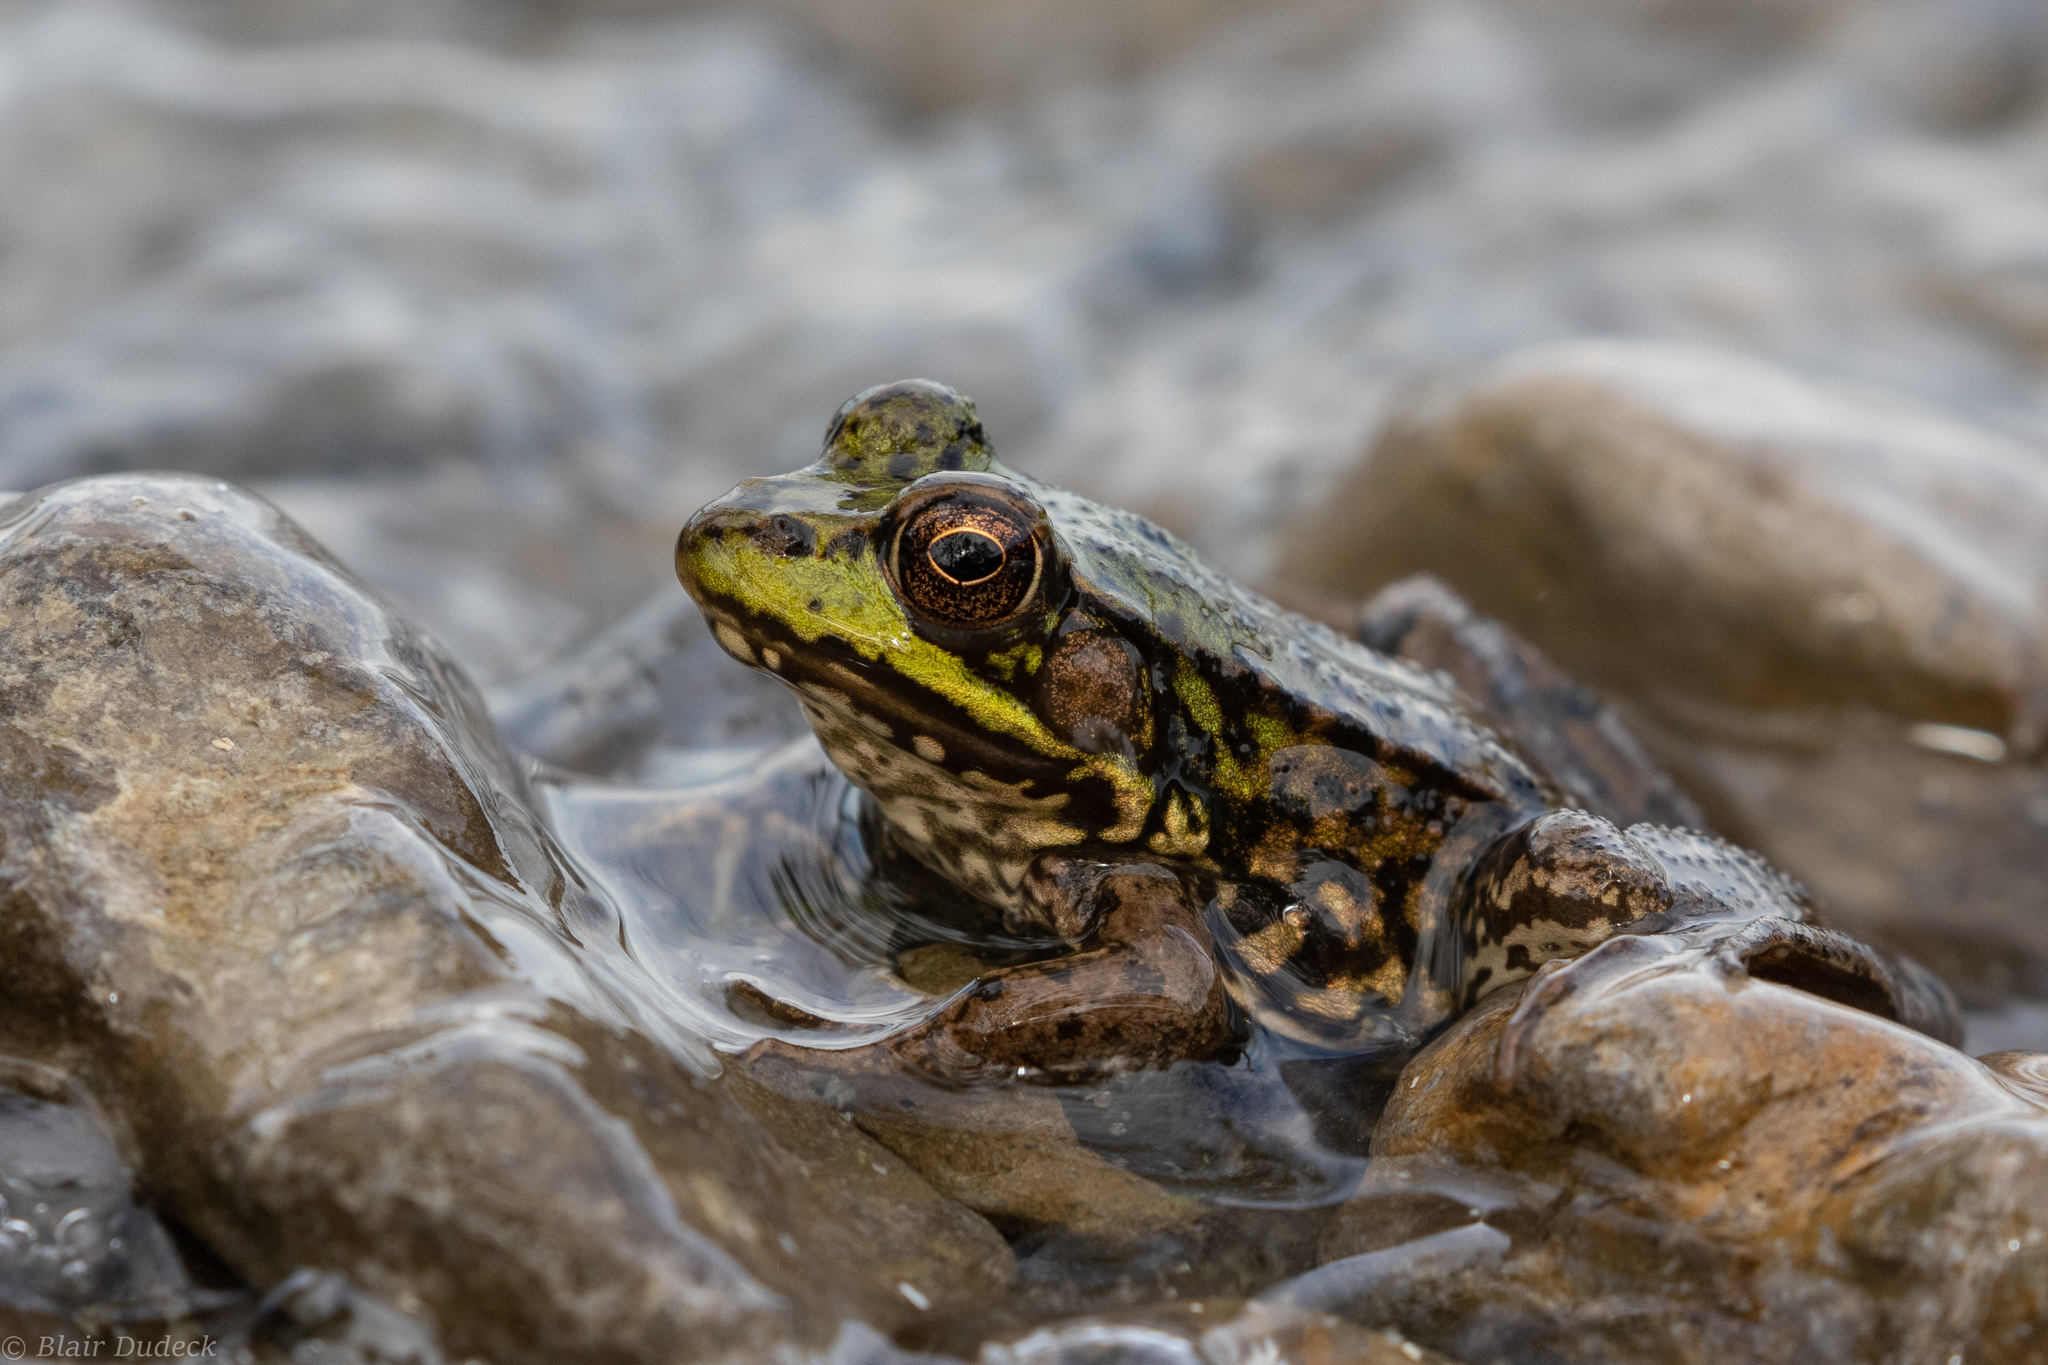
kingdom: Animalia
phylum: Chordata
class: Amphibia
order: Anura
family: Ranidae
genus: Lithobates
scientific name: Lithobates clamitans
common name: Green frog
